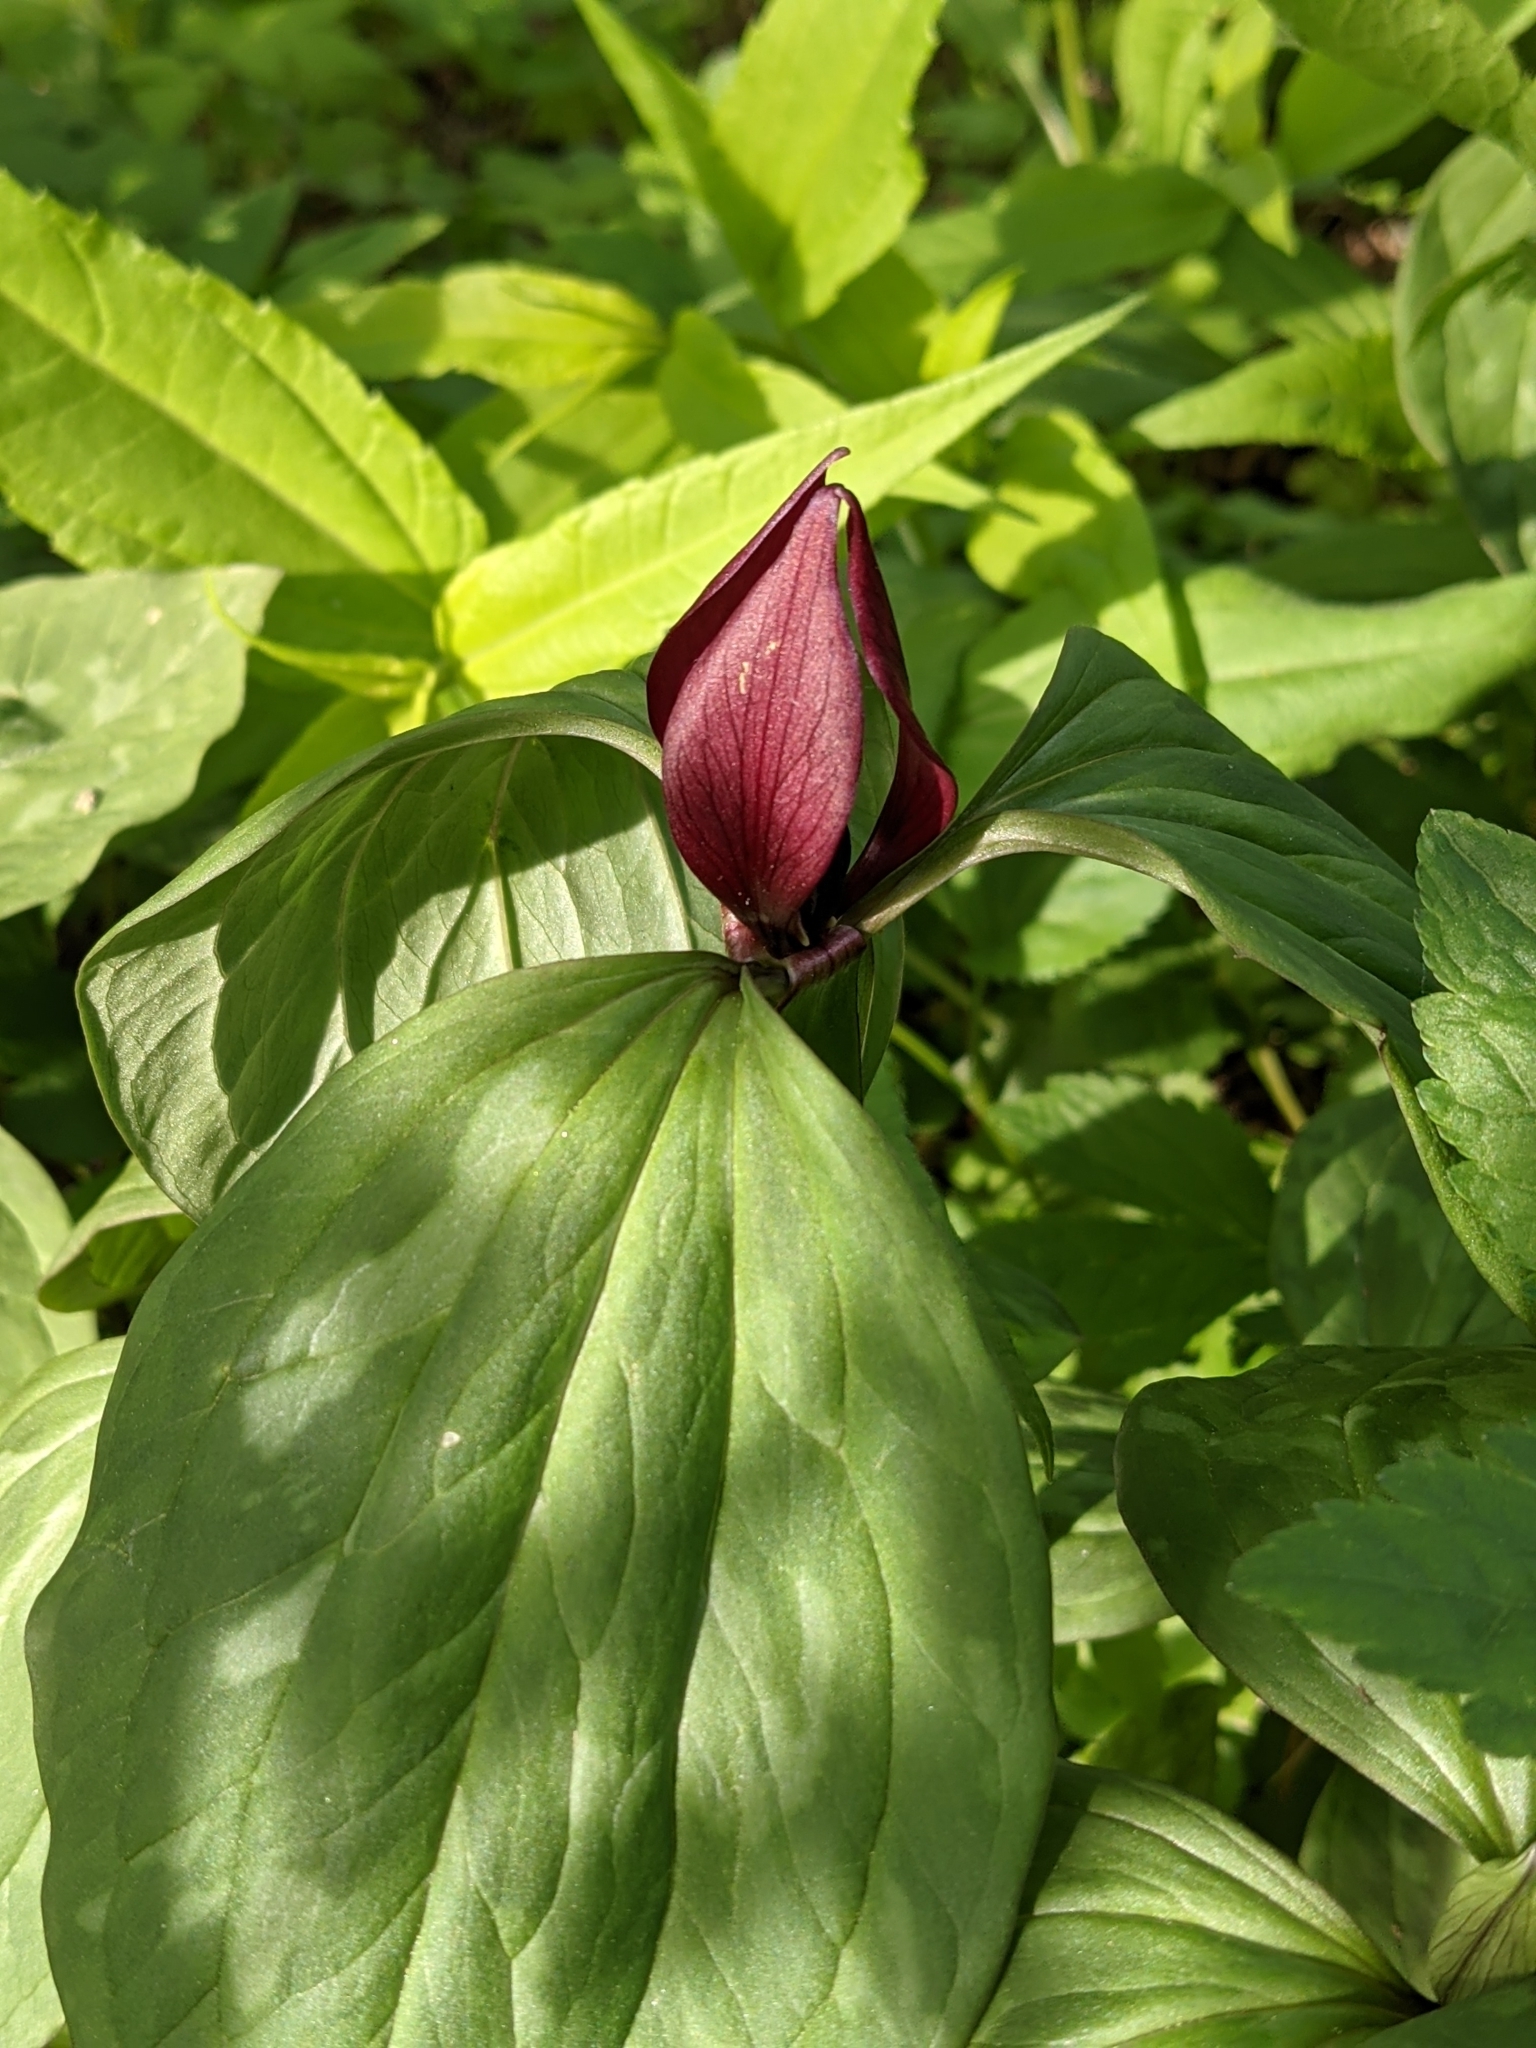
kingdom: Plantae
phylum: Tracheophyta
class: Liliopsida
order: Liliales
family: Melanthiaceae
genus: Trillium
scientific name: Trillium recurvatum
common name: Bloody butcher
